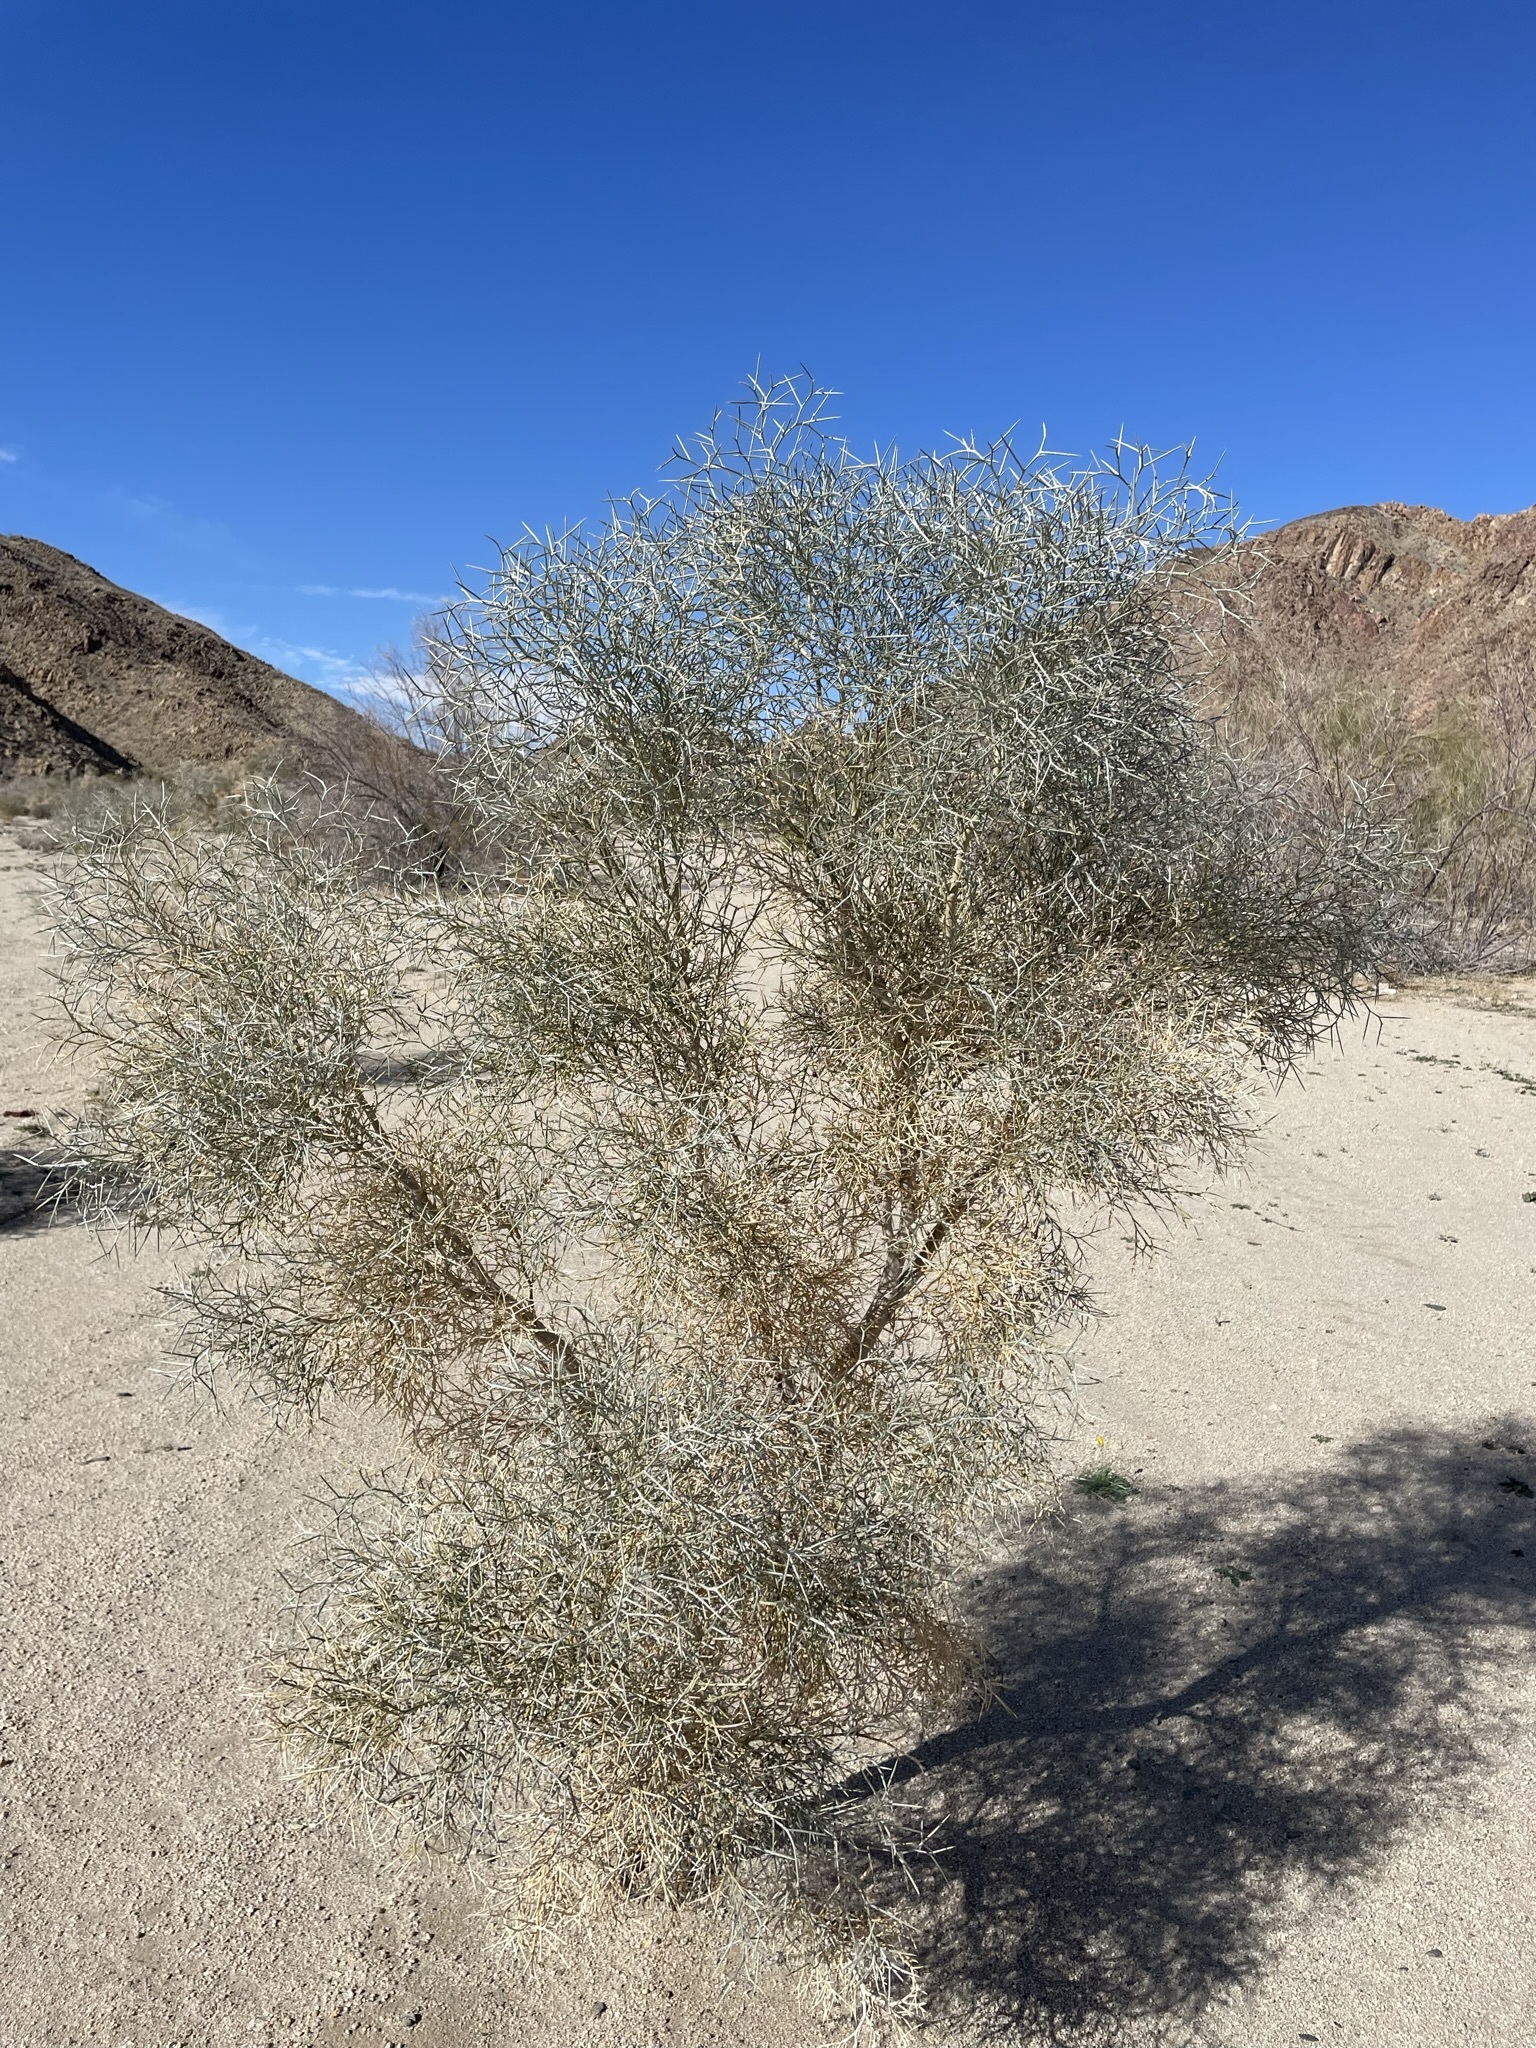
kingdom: Plantae
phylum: Tracheophyta
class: Magnoliopsida
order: Fabales
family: Fabaceae
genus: Psorothamnus
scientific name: Psorothamnus spinosus
